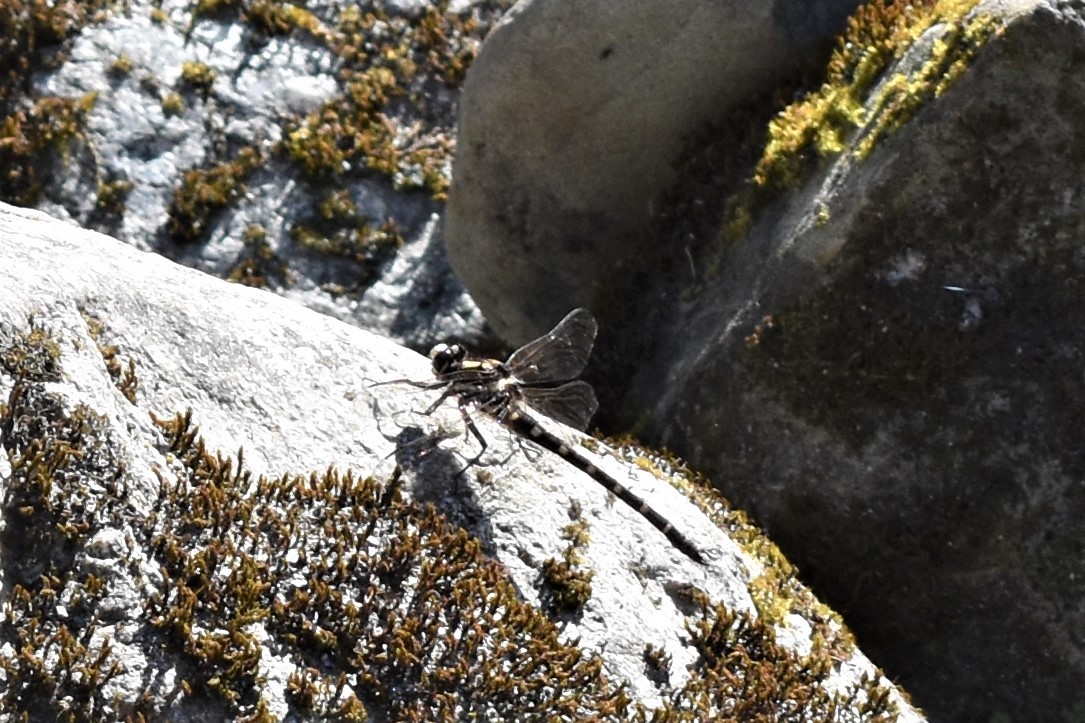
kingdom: Animalia
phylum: Arthropoda
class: Insecta
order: Odonata
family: Petaluridae
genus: Uropetala
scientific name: Uropetala carovei
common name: Bush giant dragonfly
